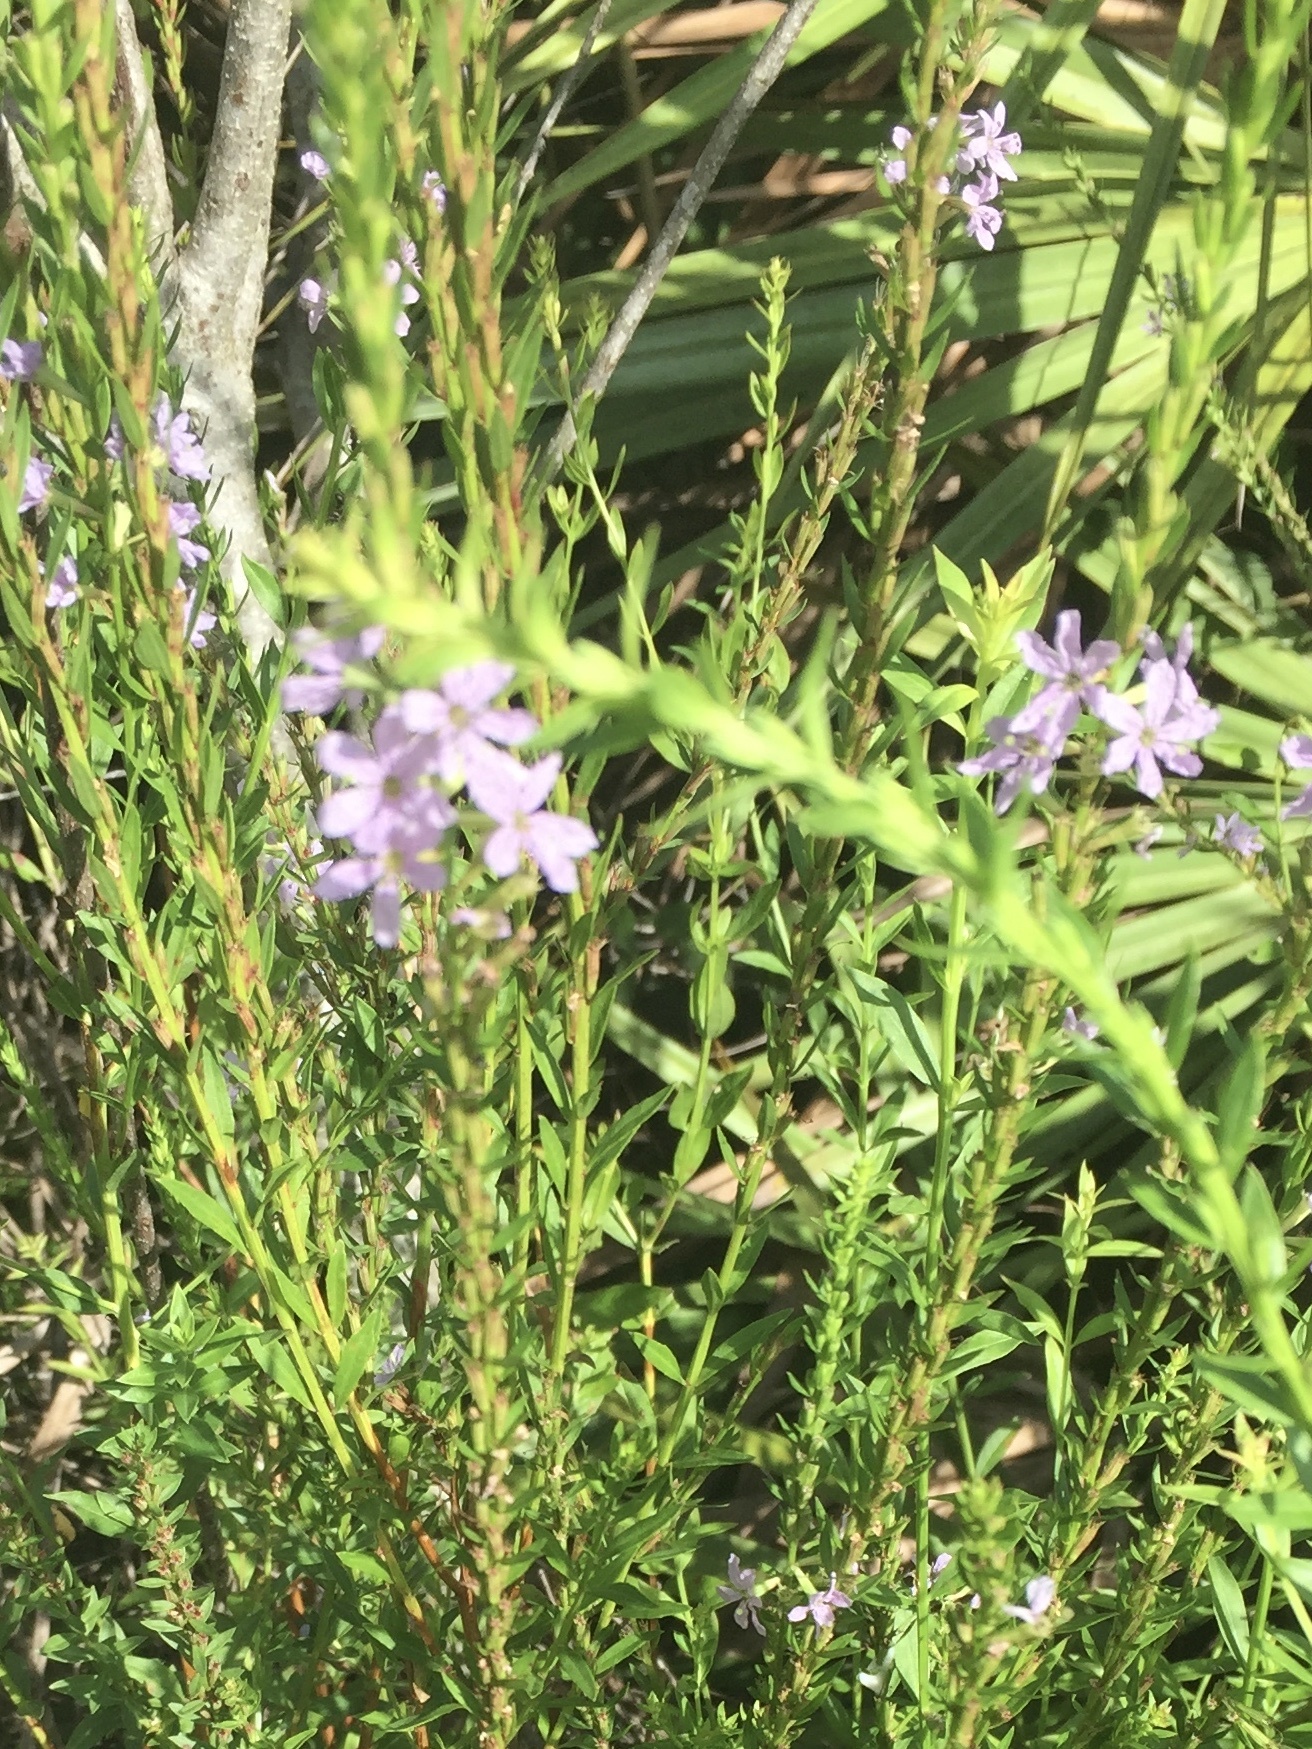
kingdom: Plantae
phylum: Tracheophyta
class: Magnoliopsida
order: Myrtales
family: Lythraceae
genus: Lythrum
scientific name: Lythrum alatum
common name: Winged loosestrife
